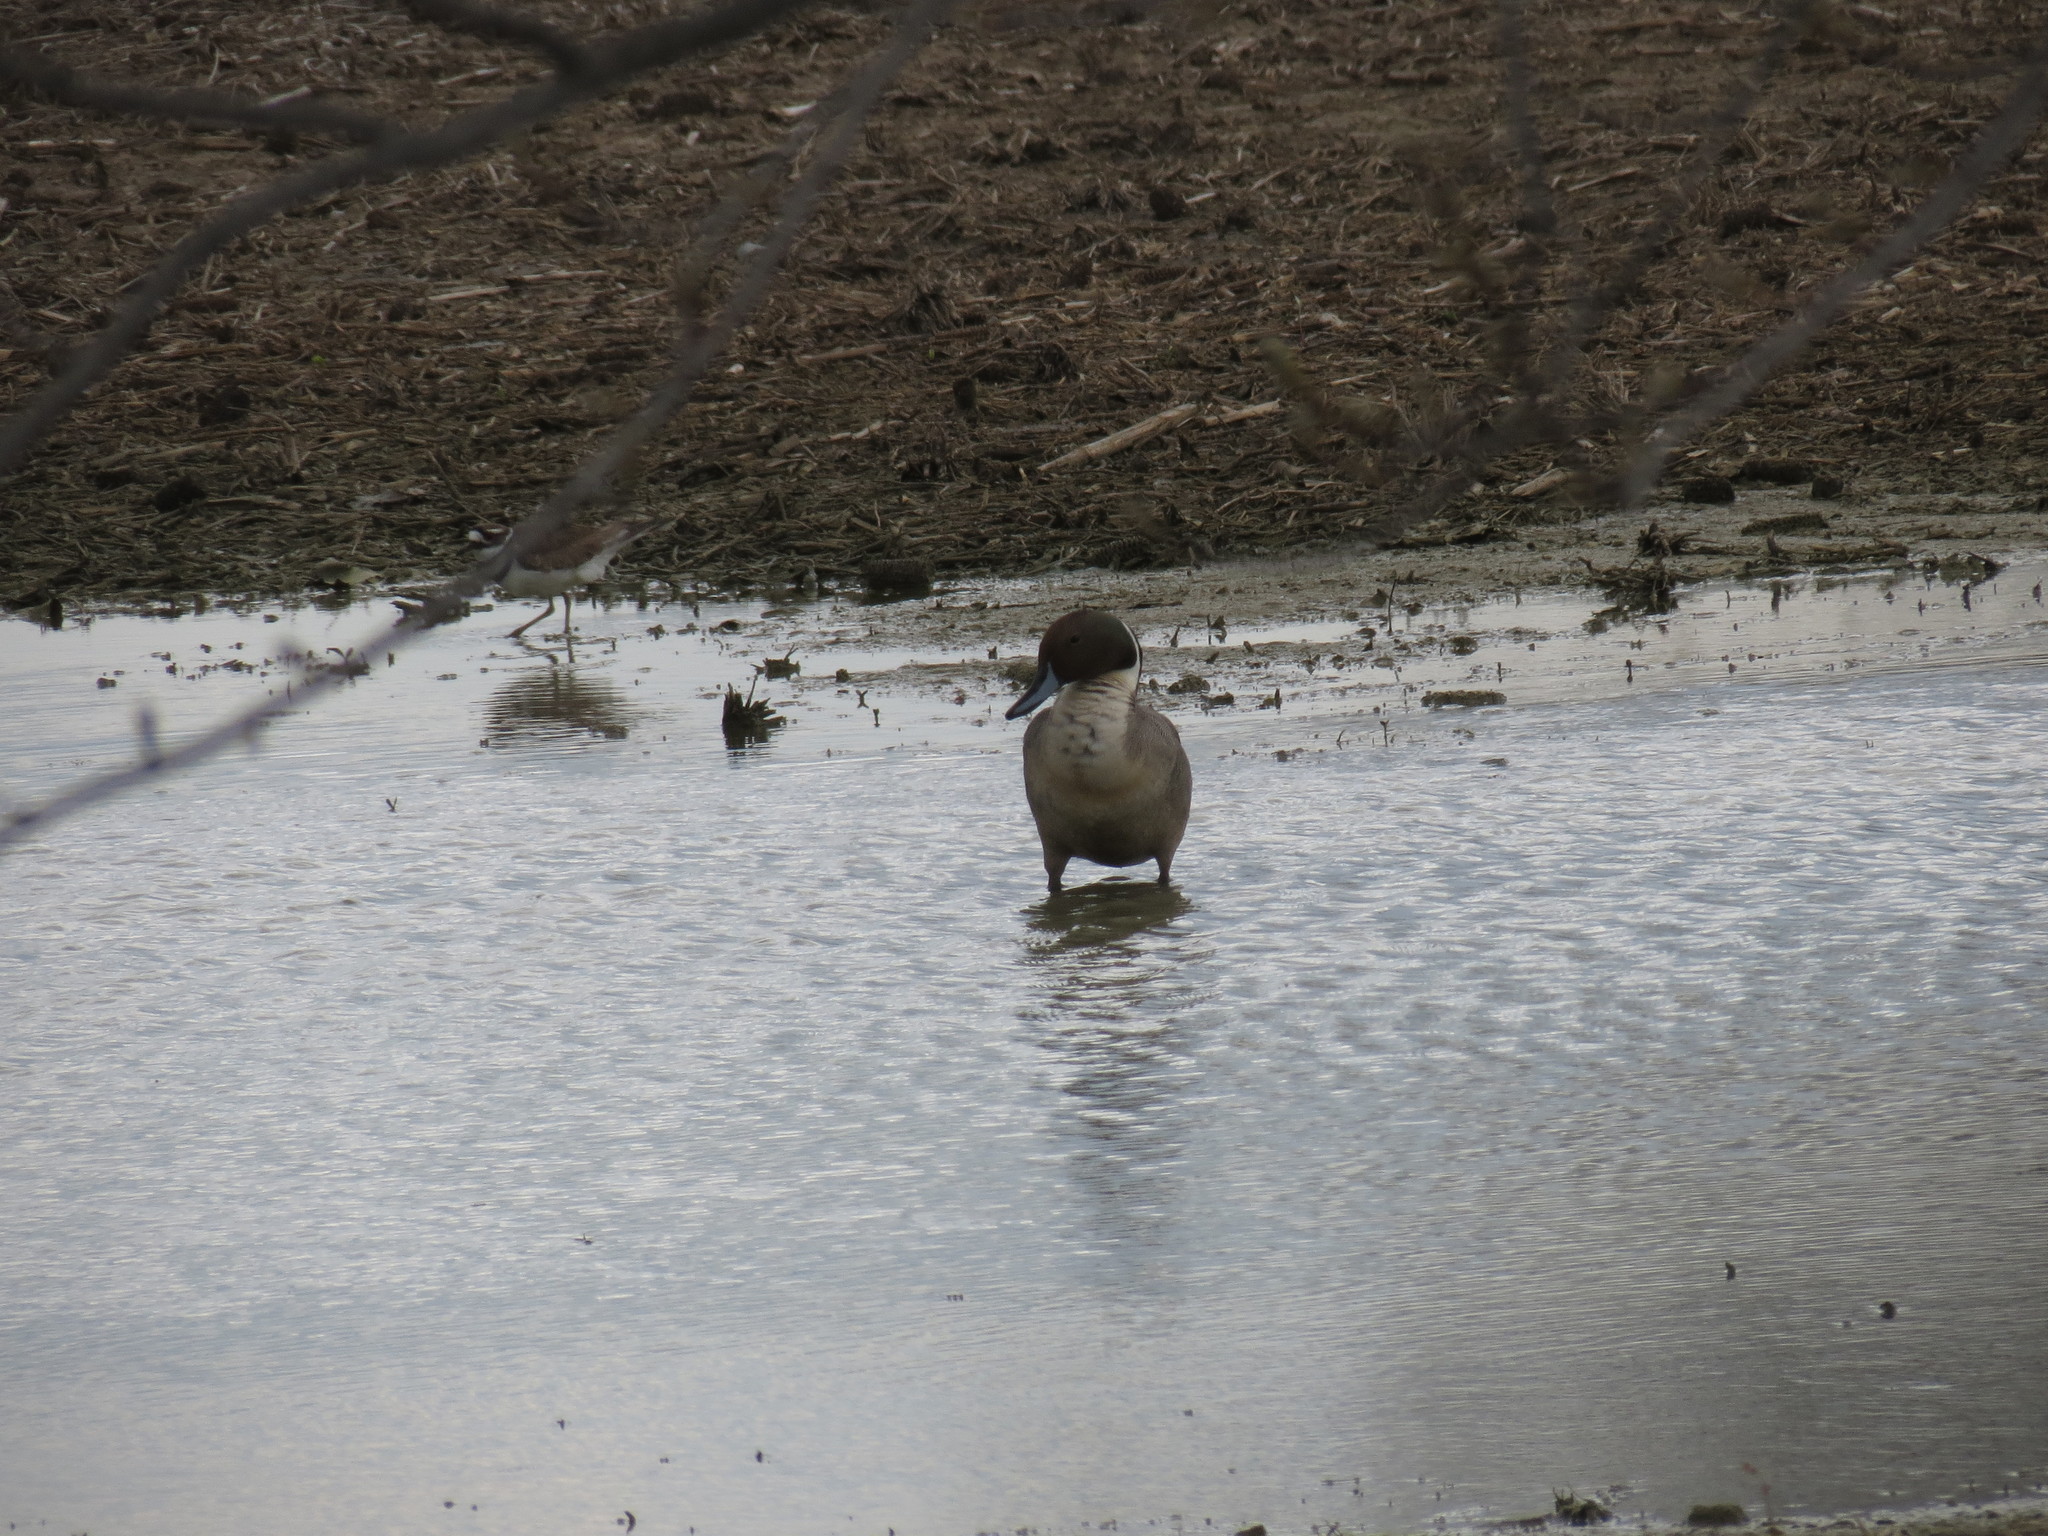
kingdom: Animalia
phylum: Chordata
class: Aves
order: Anseriformes
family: Anatidae
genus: Anas
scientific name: Anas acuta
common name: Northern pintail
